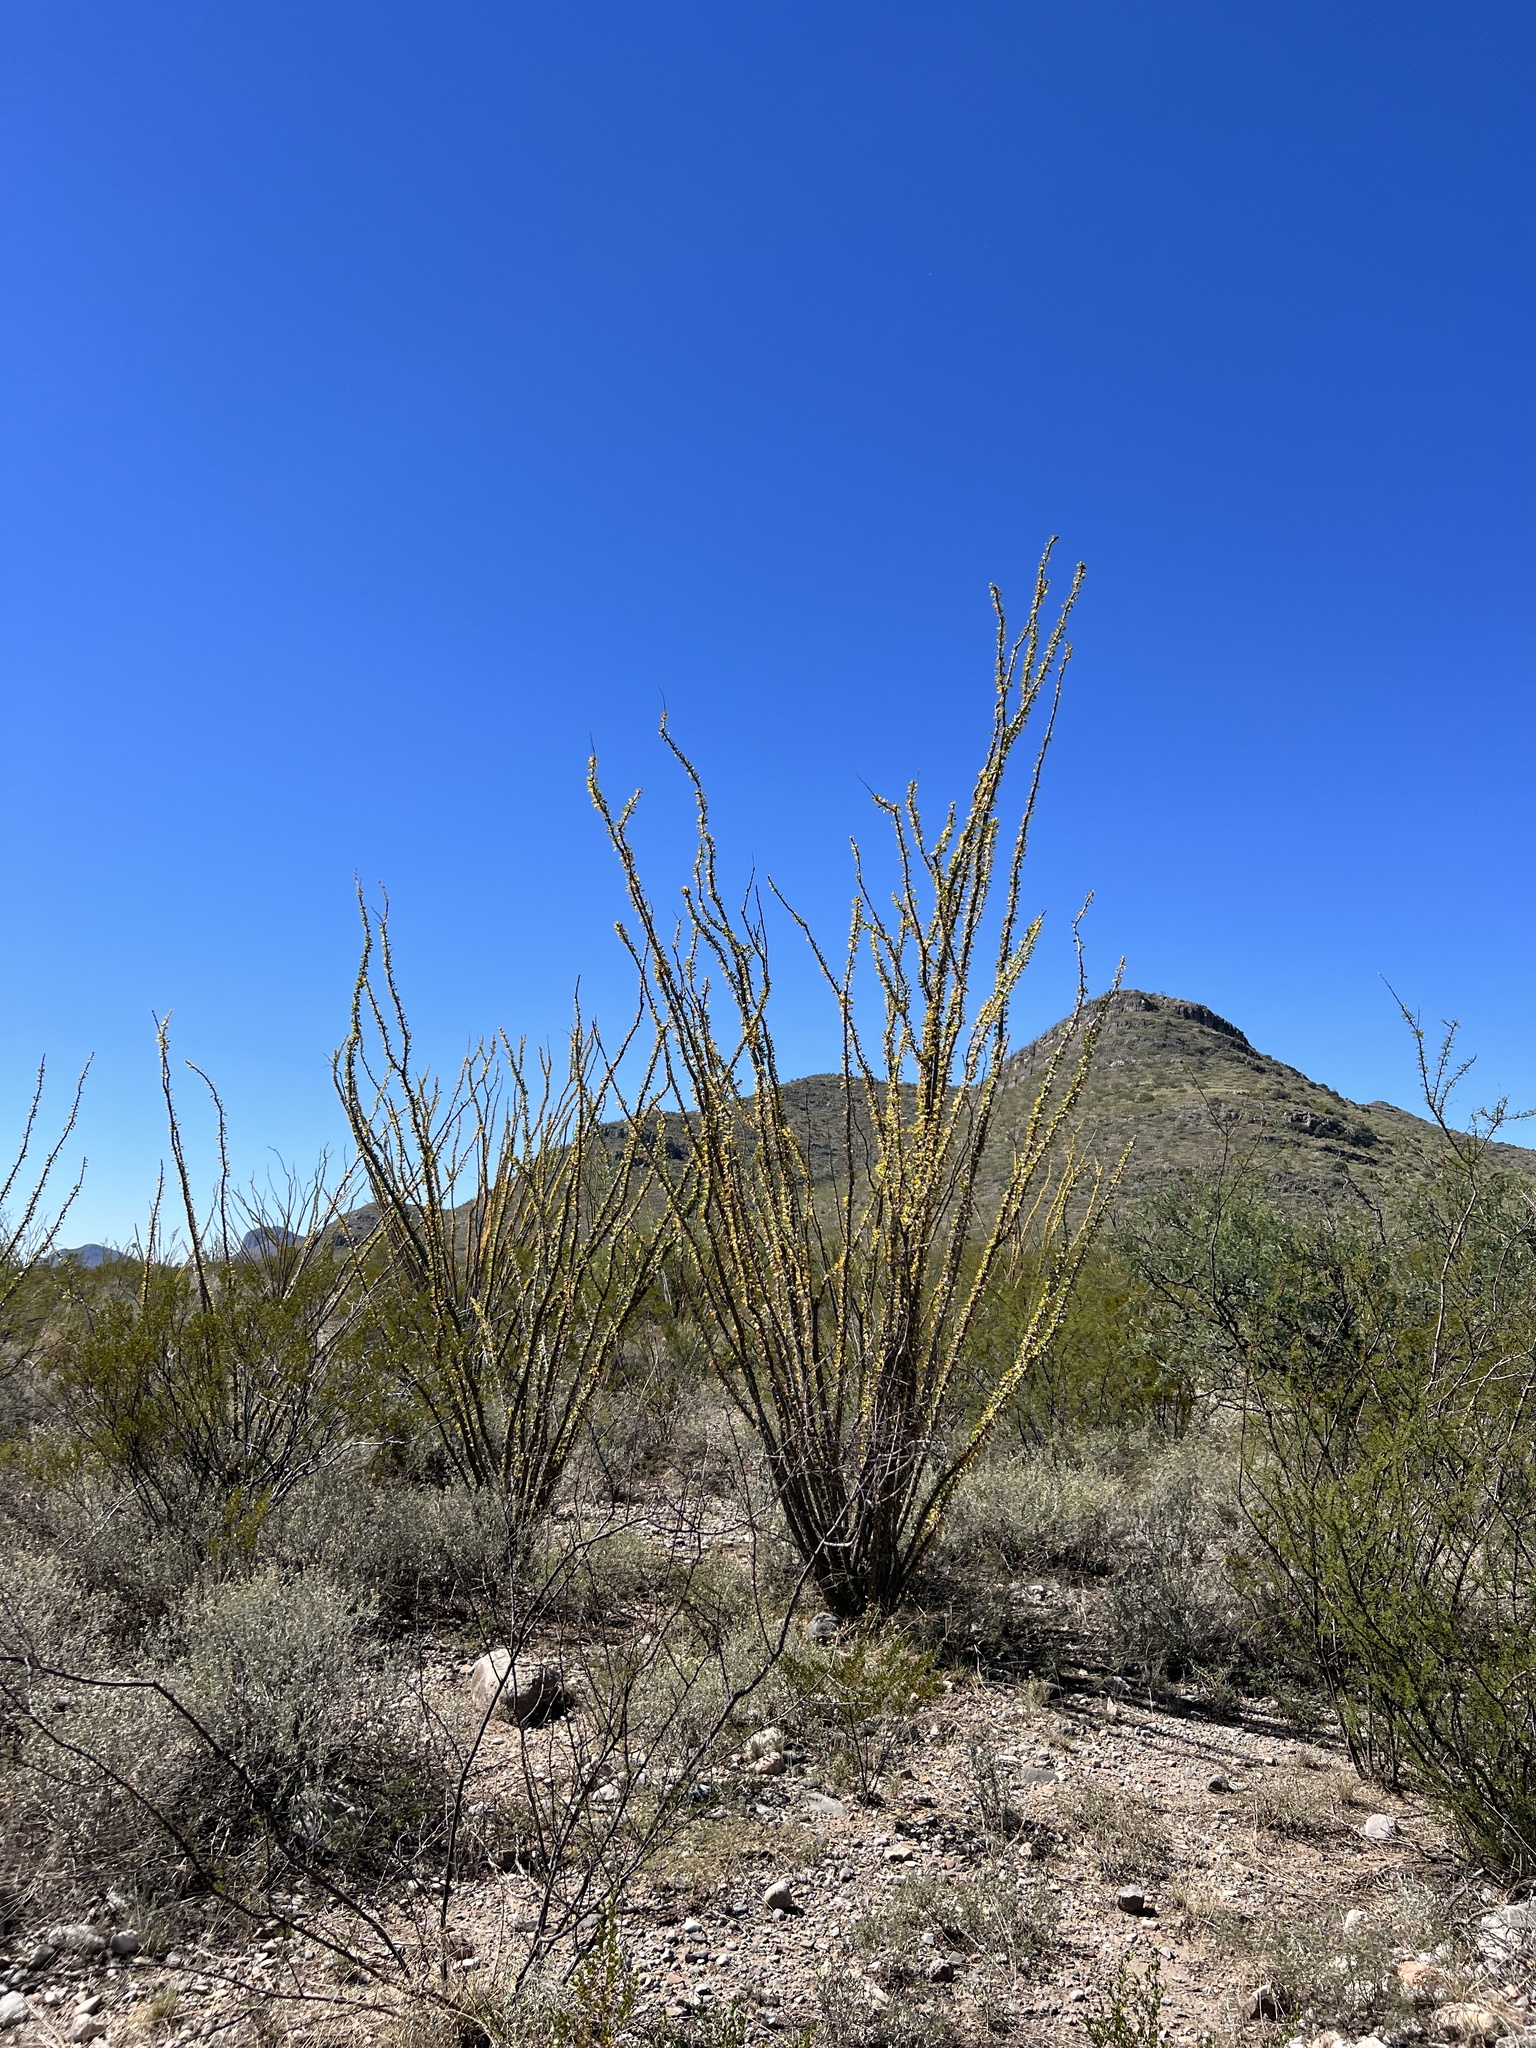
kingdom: Plantae
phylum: Tracheophyta
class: Magnoliopsida
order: Ericales
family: Fouquieriaceae
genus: Fouquieria
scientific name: Fouquieria splendens
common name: Vine-cactus
